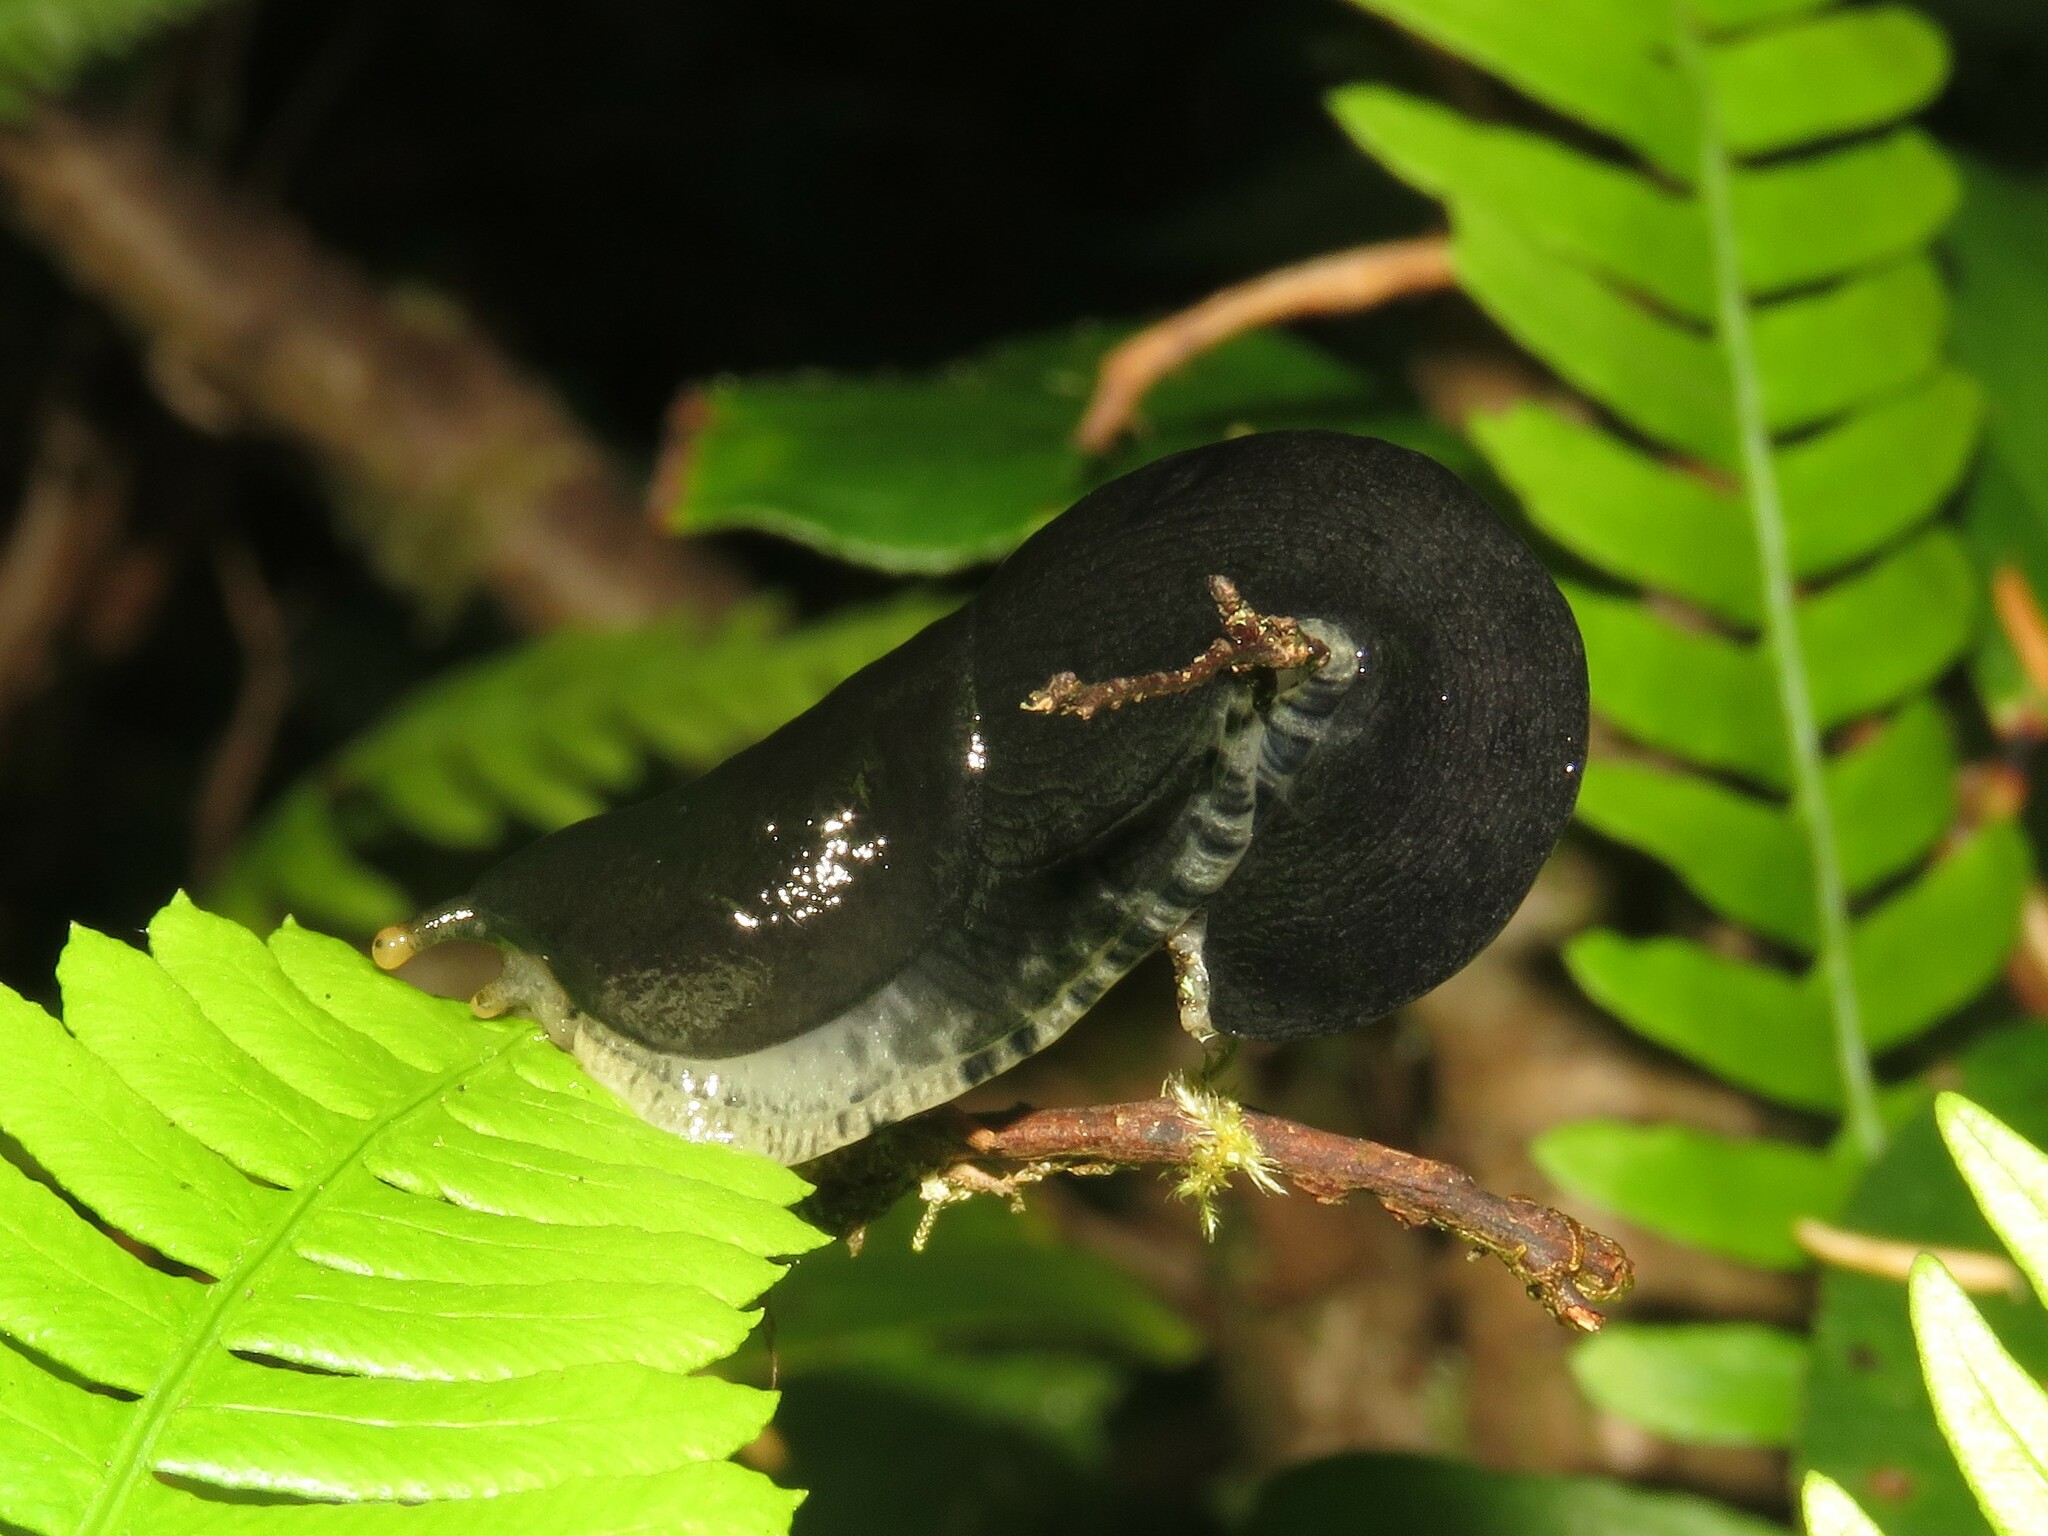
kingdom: Animalia
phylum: Mollusca
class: Gastropoda
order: Stylommatophora
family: Ariolimacidae
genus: Ariolimax
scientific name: Ariolimax columbianus
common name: Pacific banana slug
